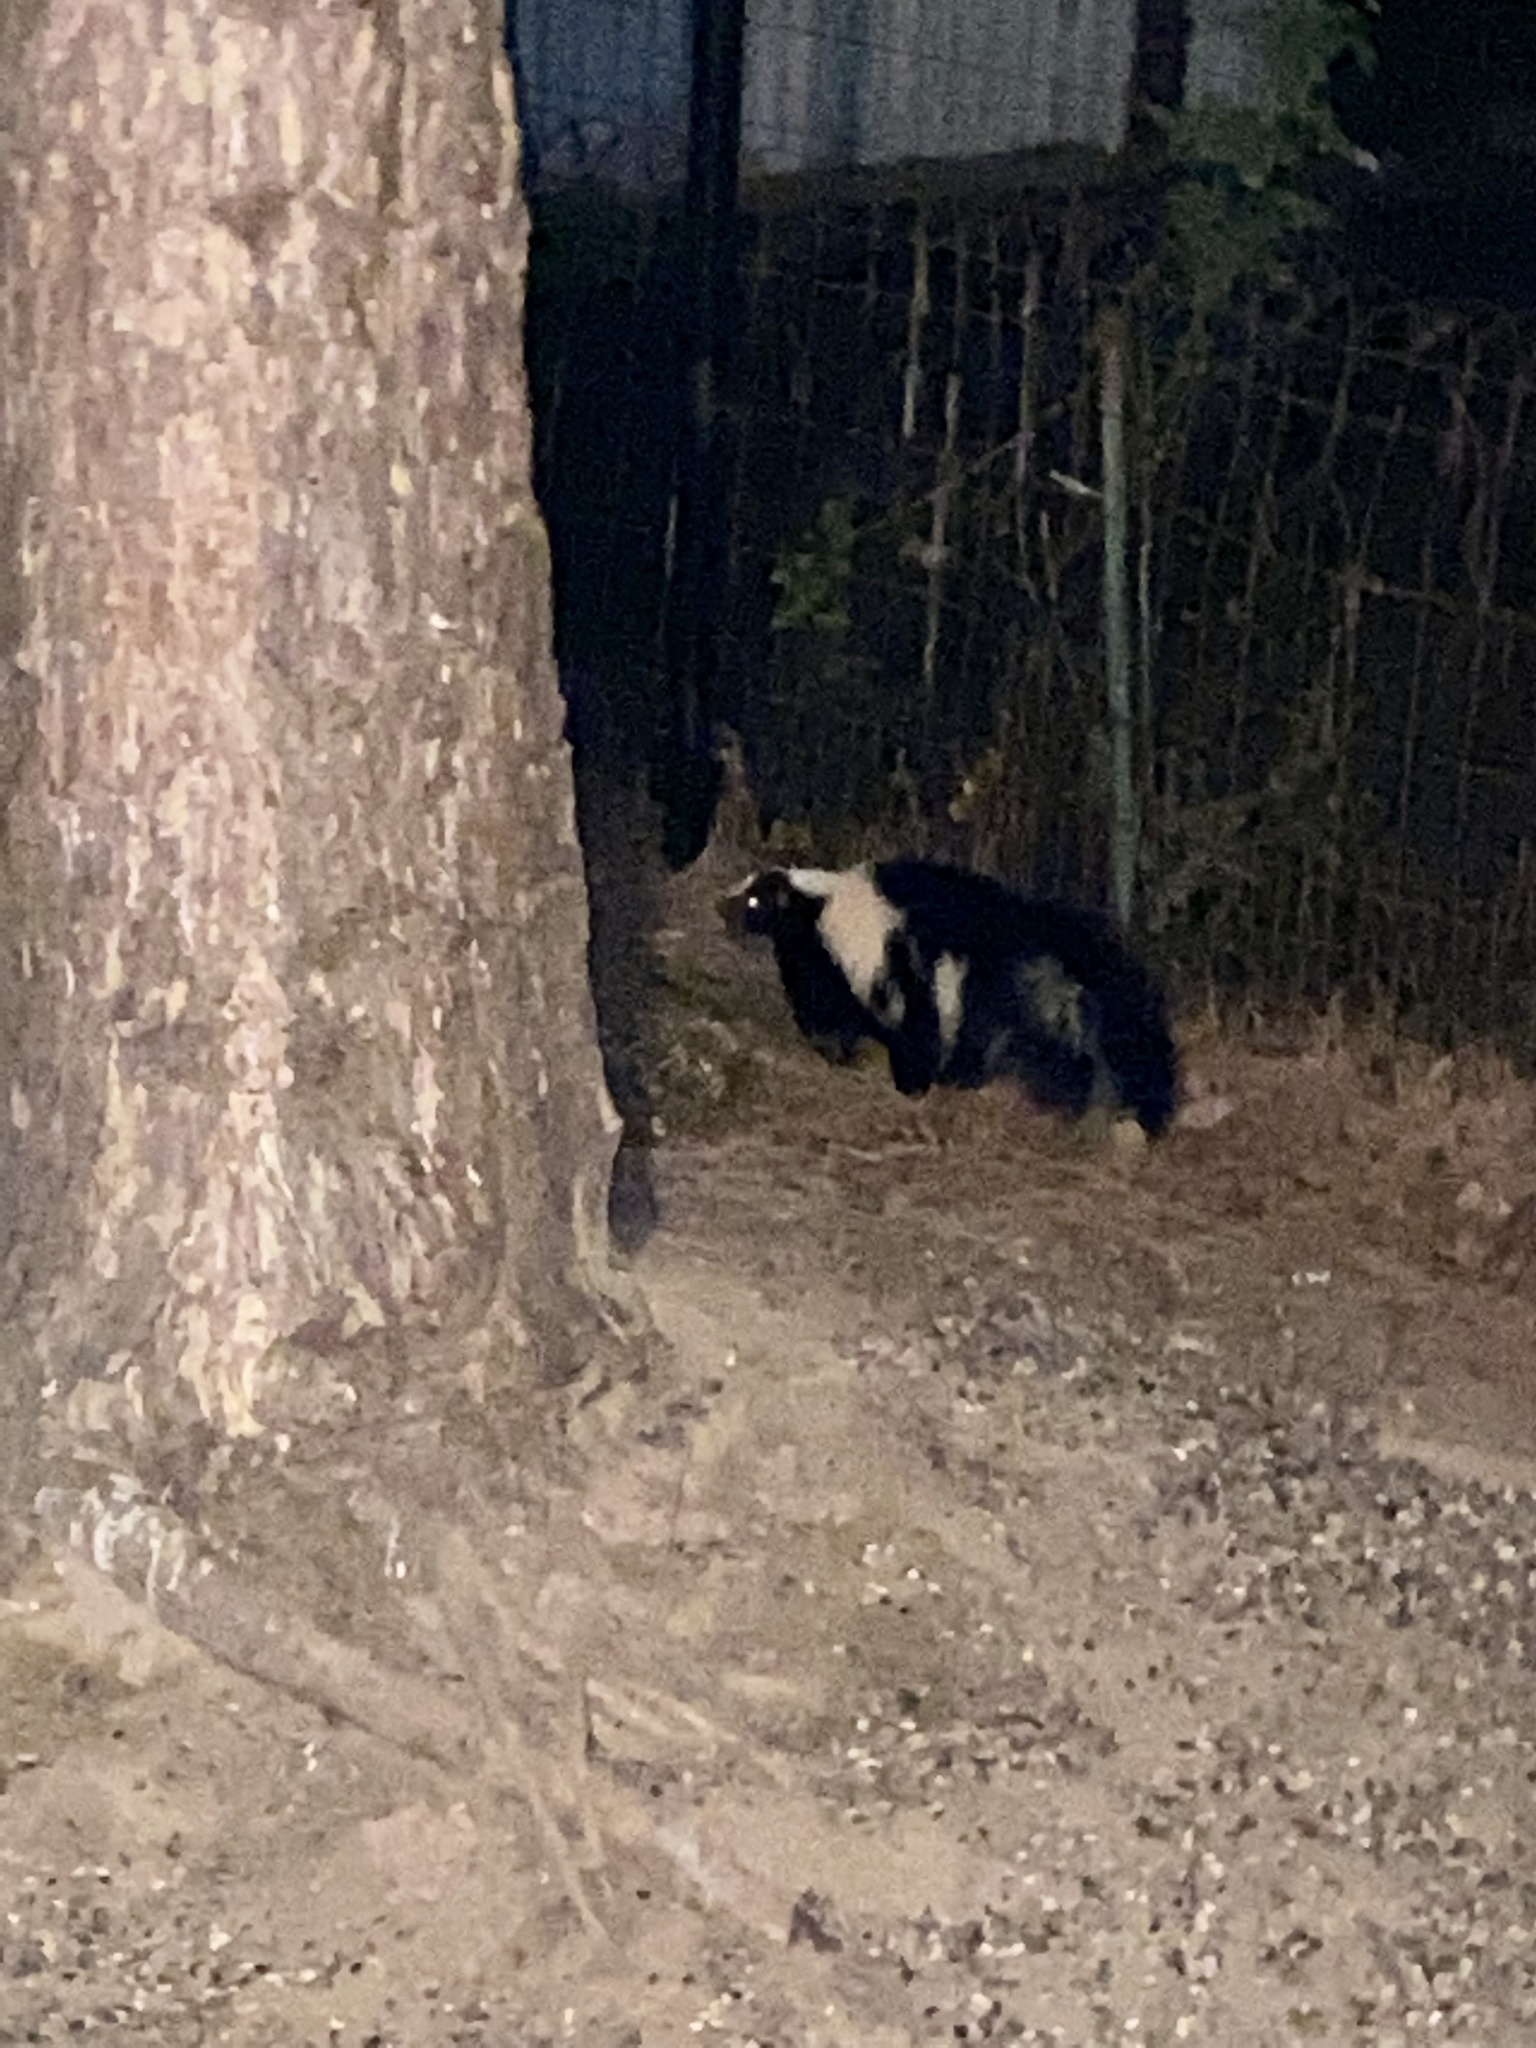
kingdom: Animalia
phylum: Chordata
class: Mammalia
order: Carnivora
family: Mephitidae
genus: Mephitis
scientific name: Mephitis mephitis
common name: Striped skunk
